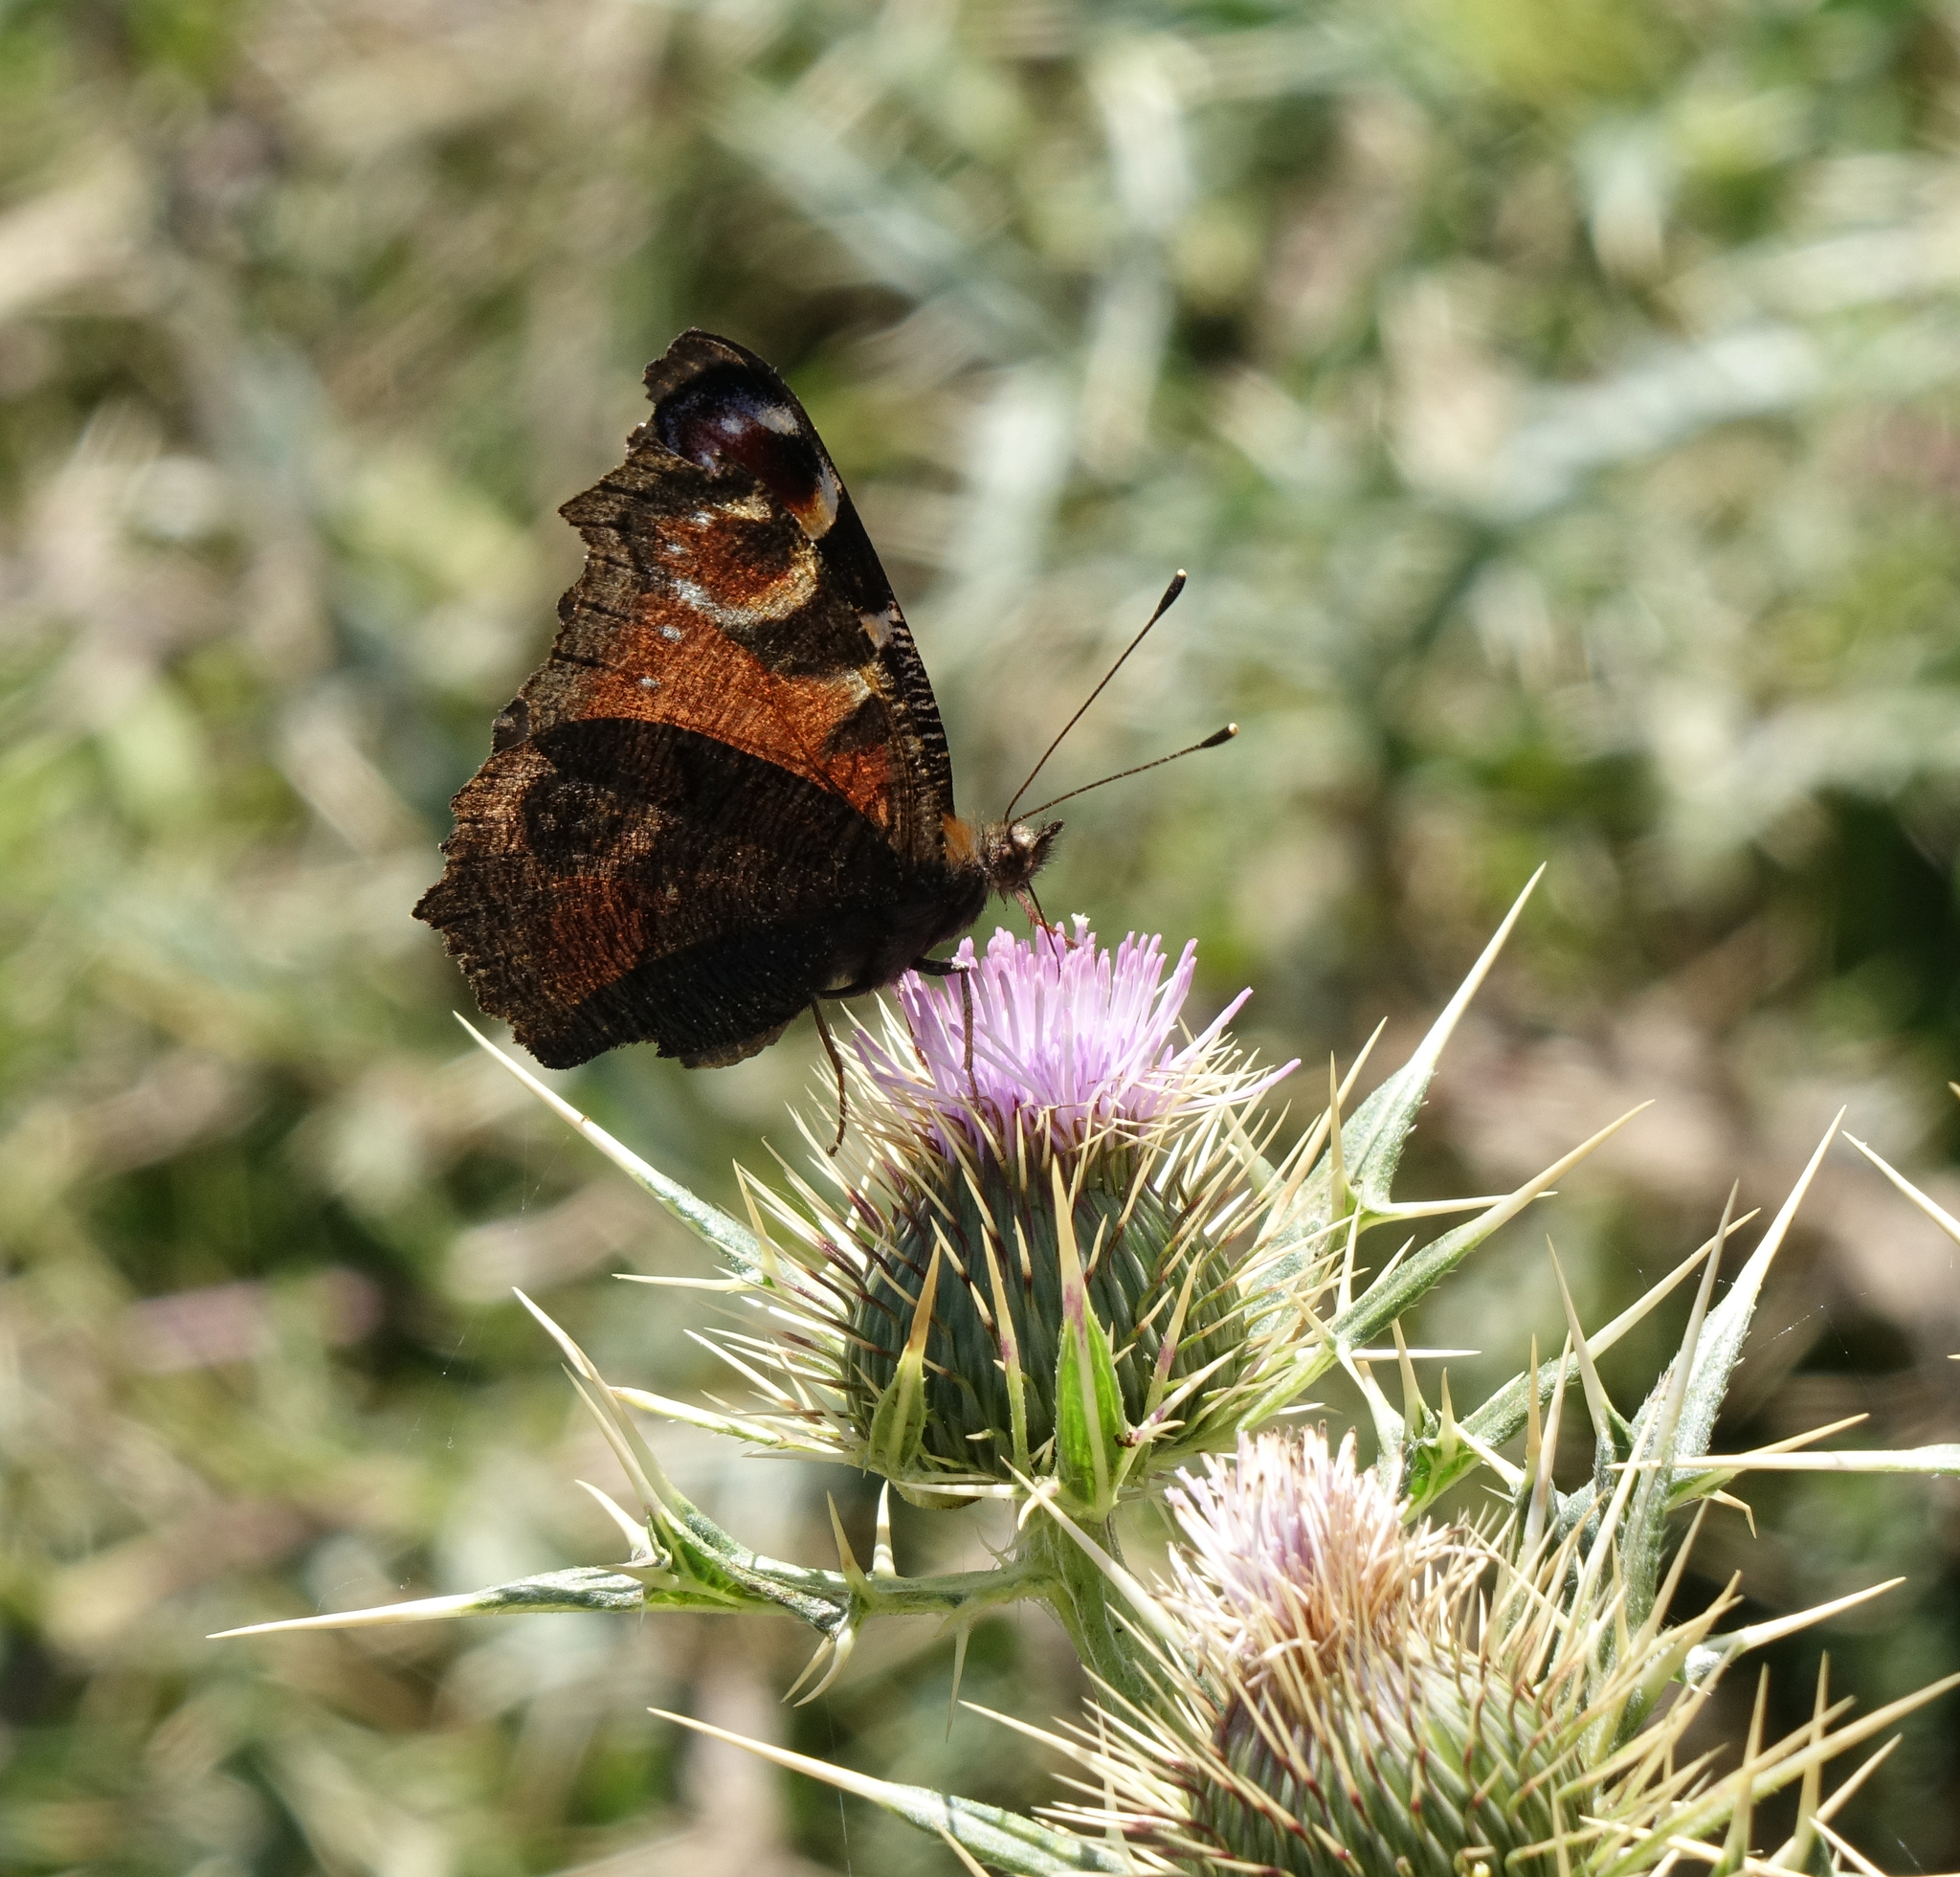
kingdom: Animalia
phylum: Arthropoda
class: Insecta
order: Lepidoptera
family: Nymphalidae
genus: Aglais
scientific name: Aglais io
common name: Peacock
